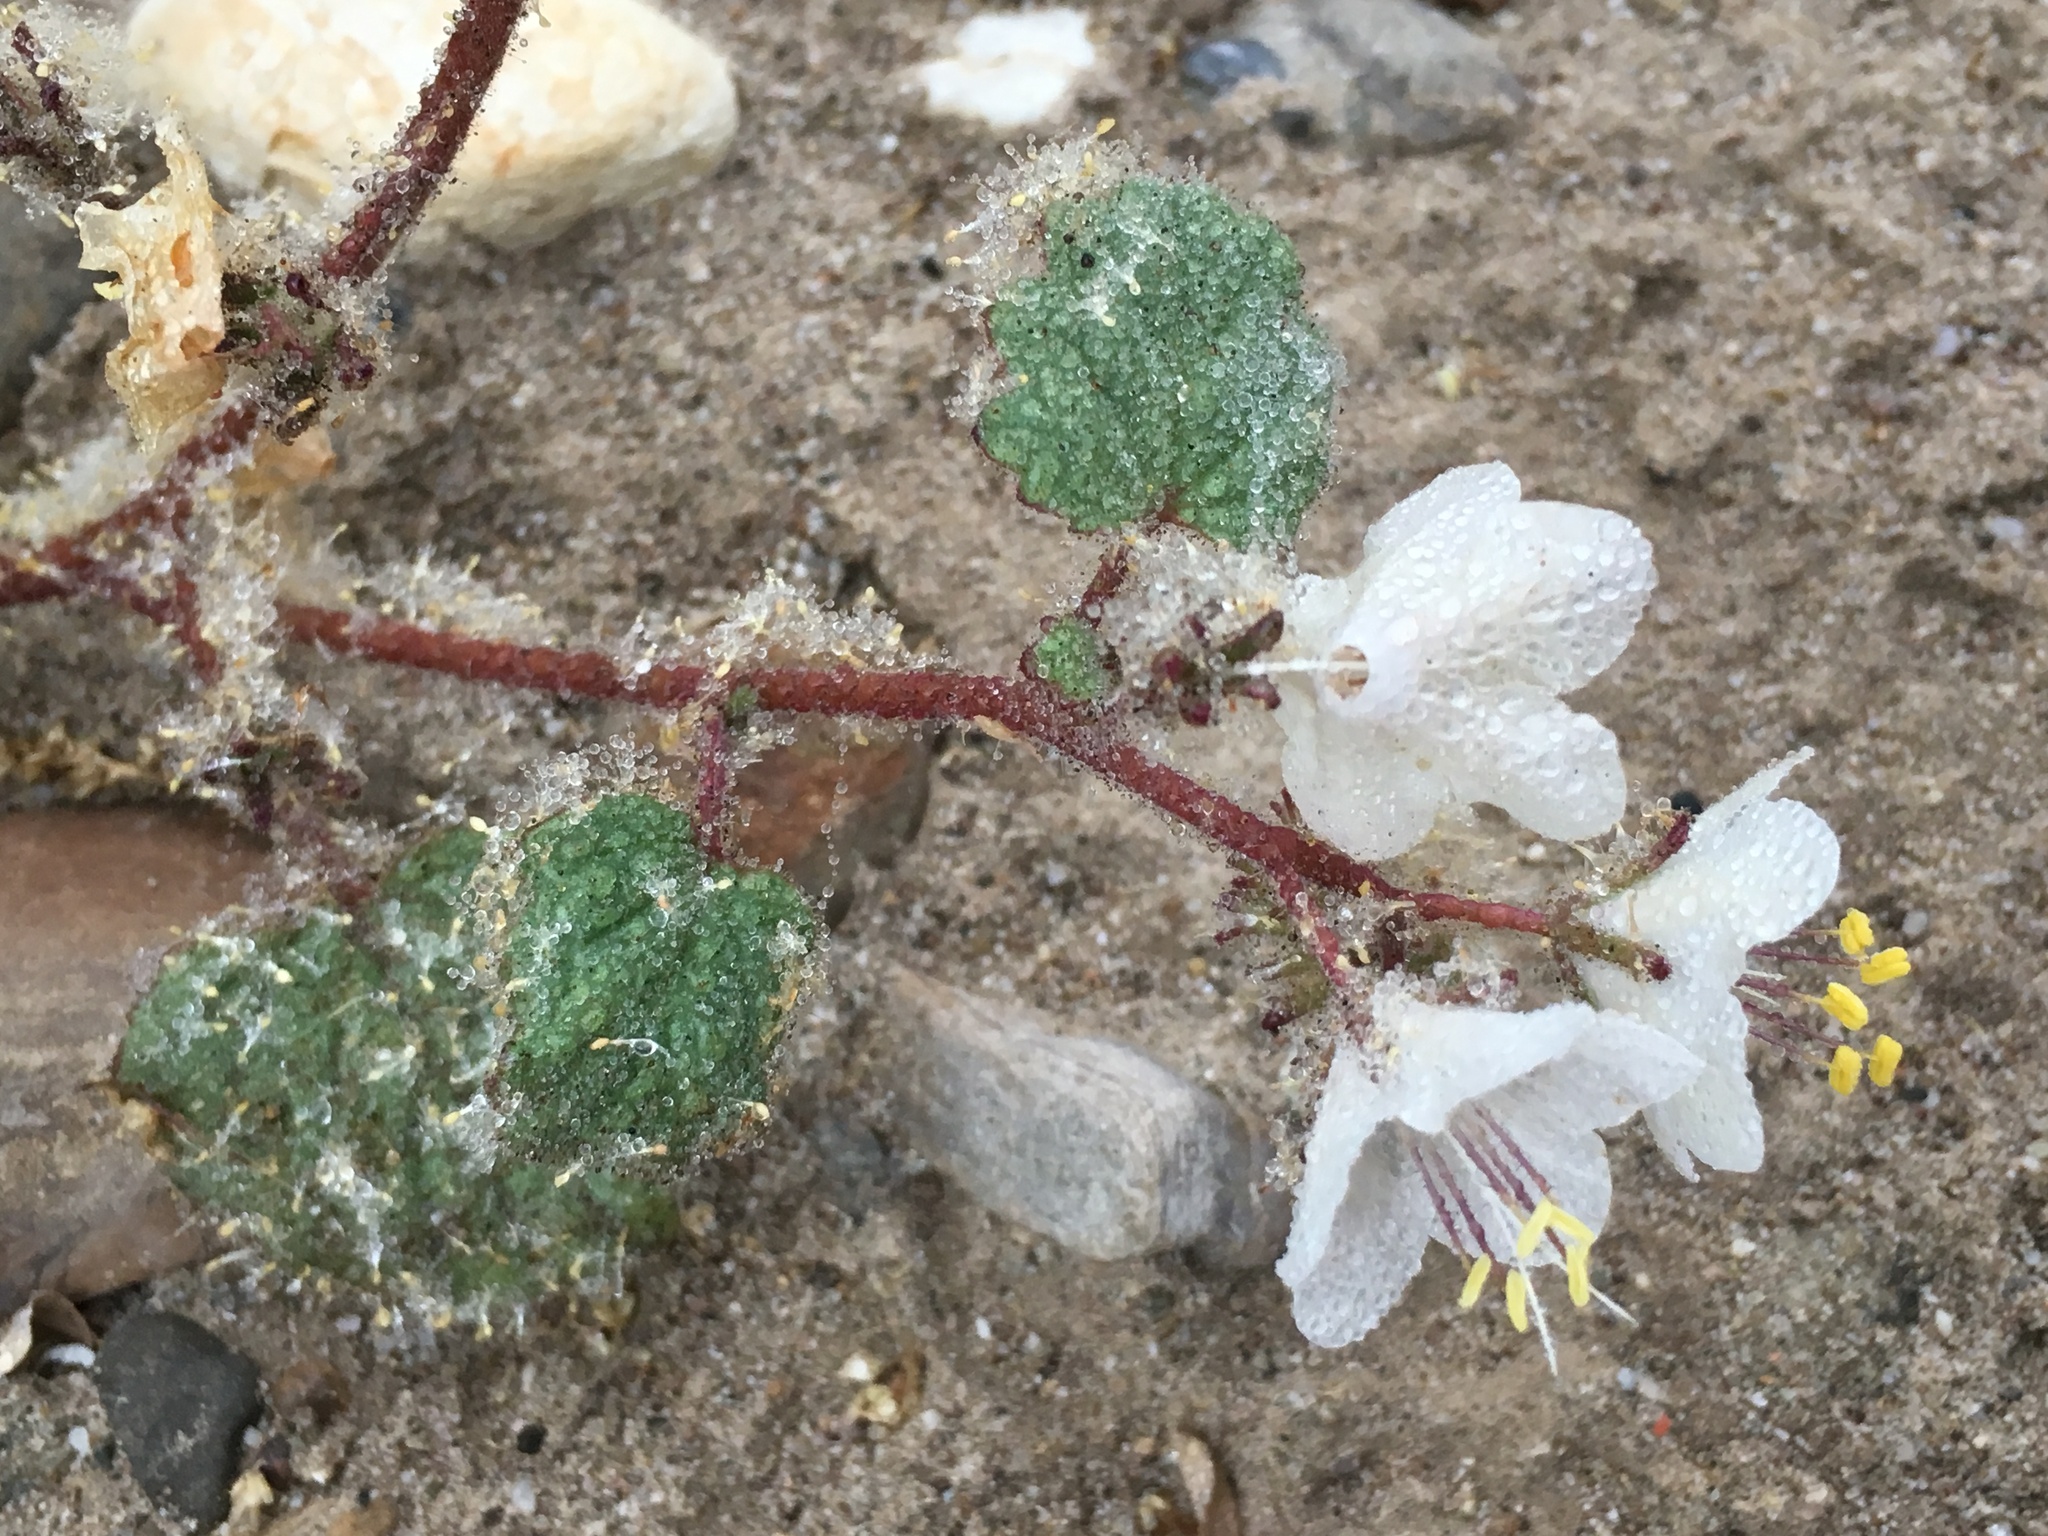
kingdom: Plantae
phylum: Tracheophyta
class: Magnoliopsida
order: Boraginales
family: Hydrophyllaceae
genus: Phacelia
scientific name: Phacelia longipes
